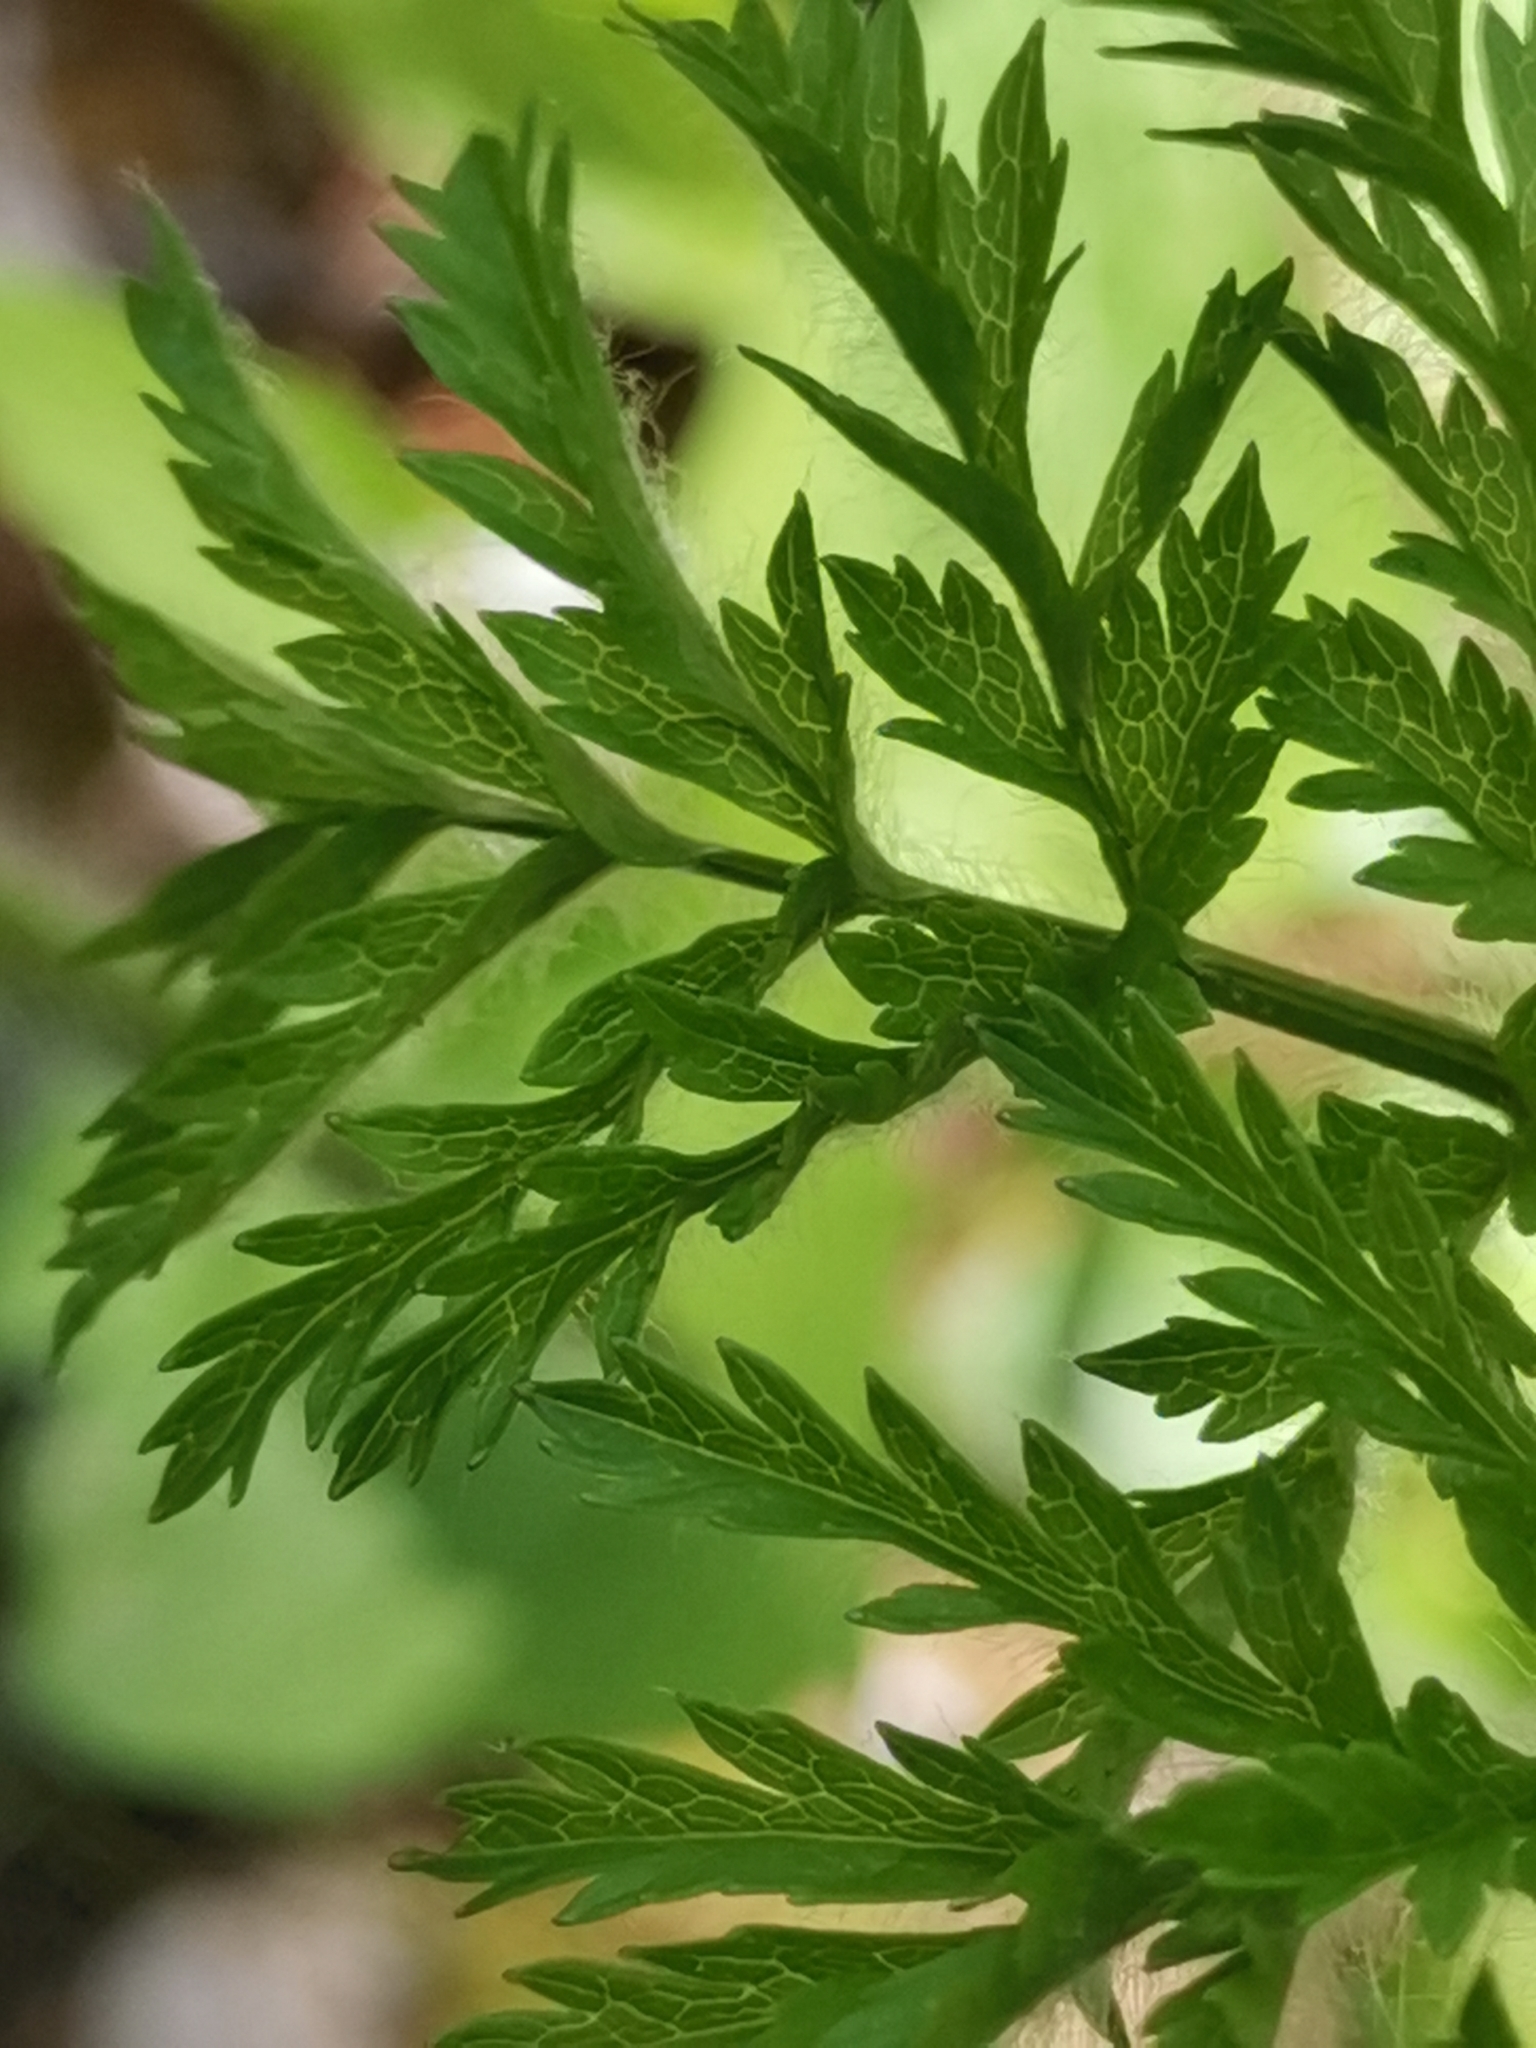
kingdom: Plantae
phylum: Tracheophyta
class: Magnoliopsida
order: Ranunculales
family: Ranunculaceae
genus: Pulsatilla
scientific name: Pulsatilla alpina
